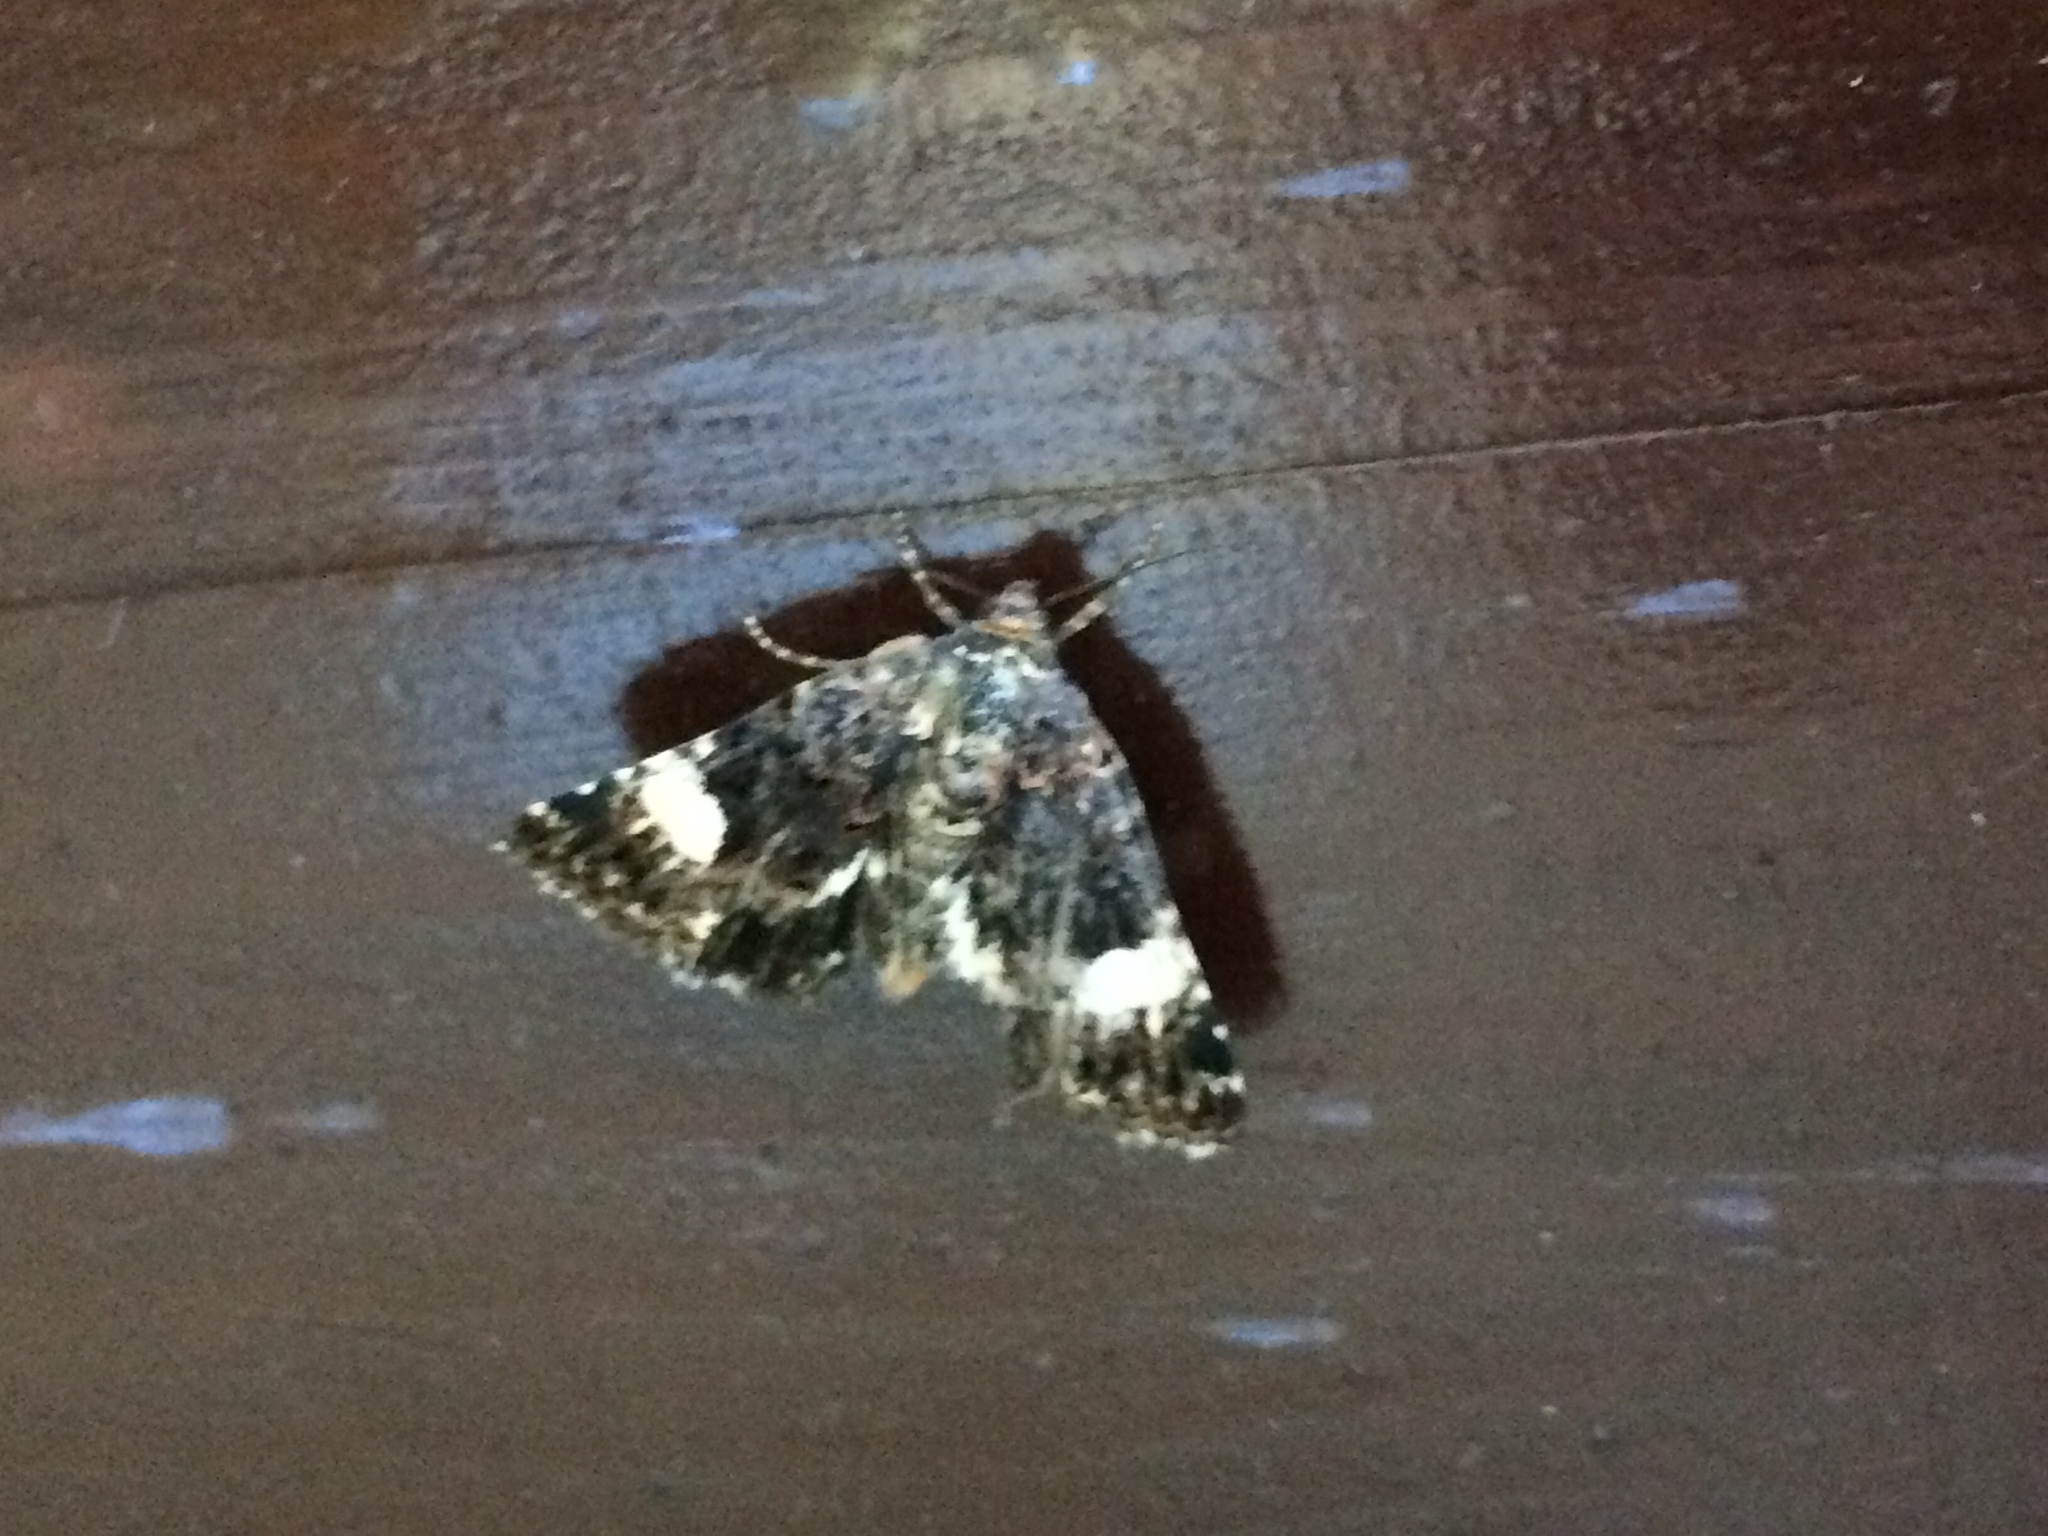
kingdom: Animalia
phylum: Arthropoda
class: Insecta
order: Lepidoptera
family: Erebidae
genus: Tyta
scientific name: Tyta luctuosa
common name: Four-spotted
